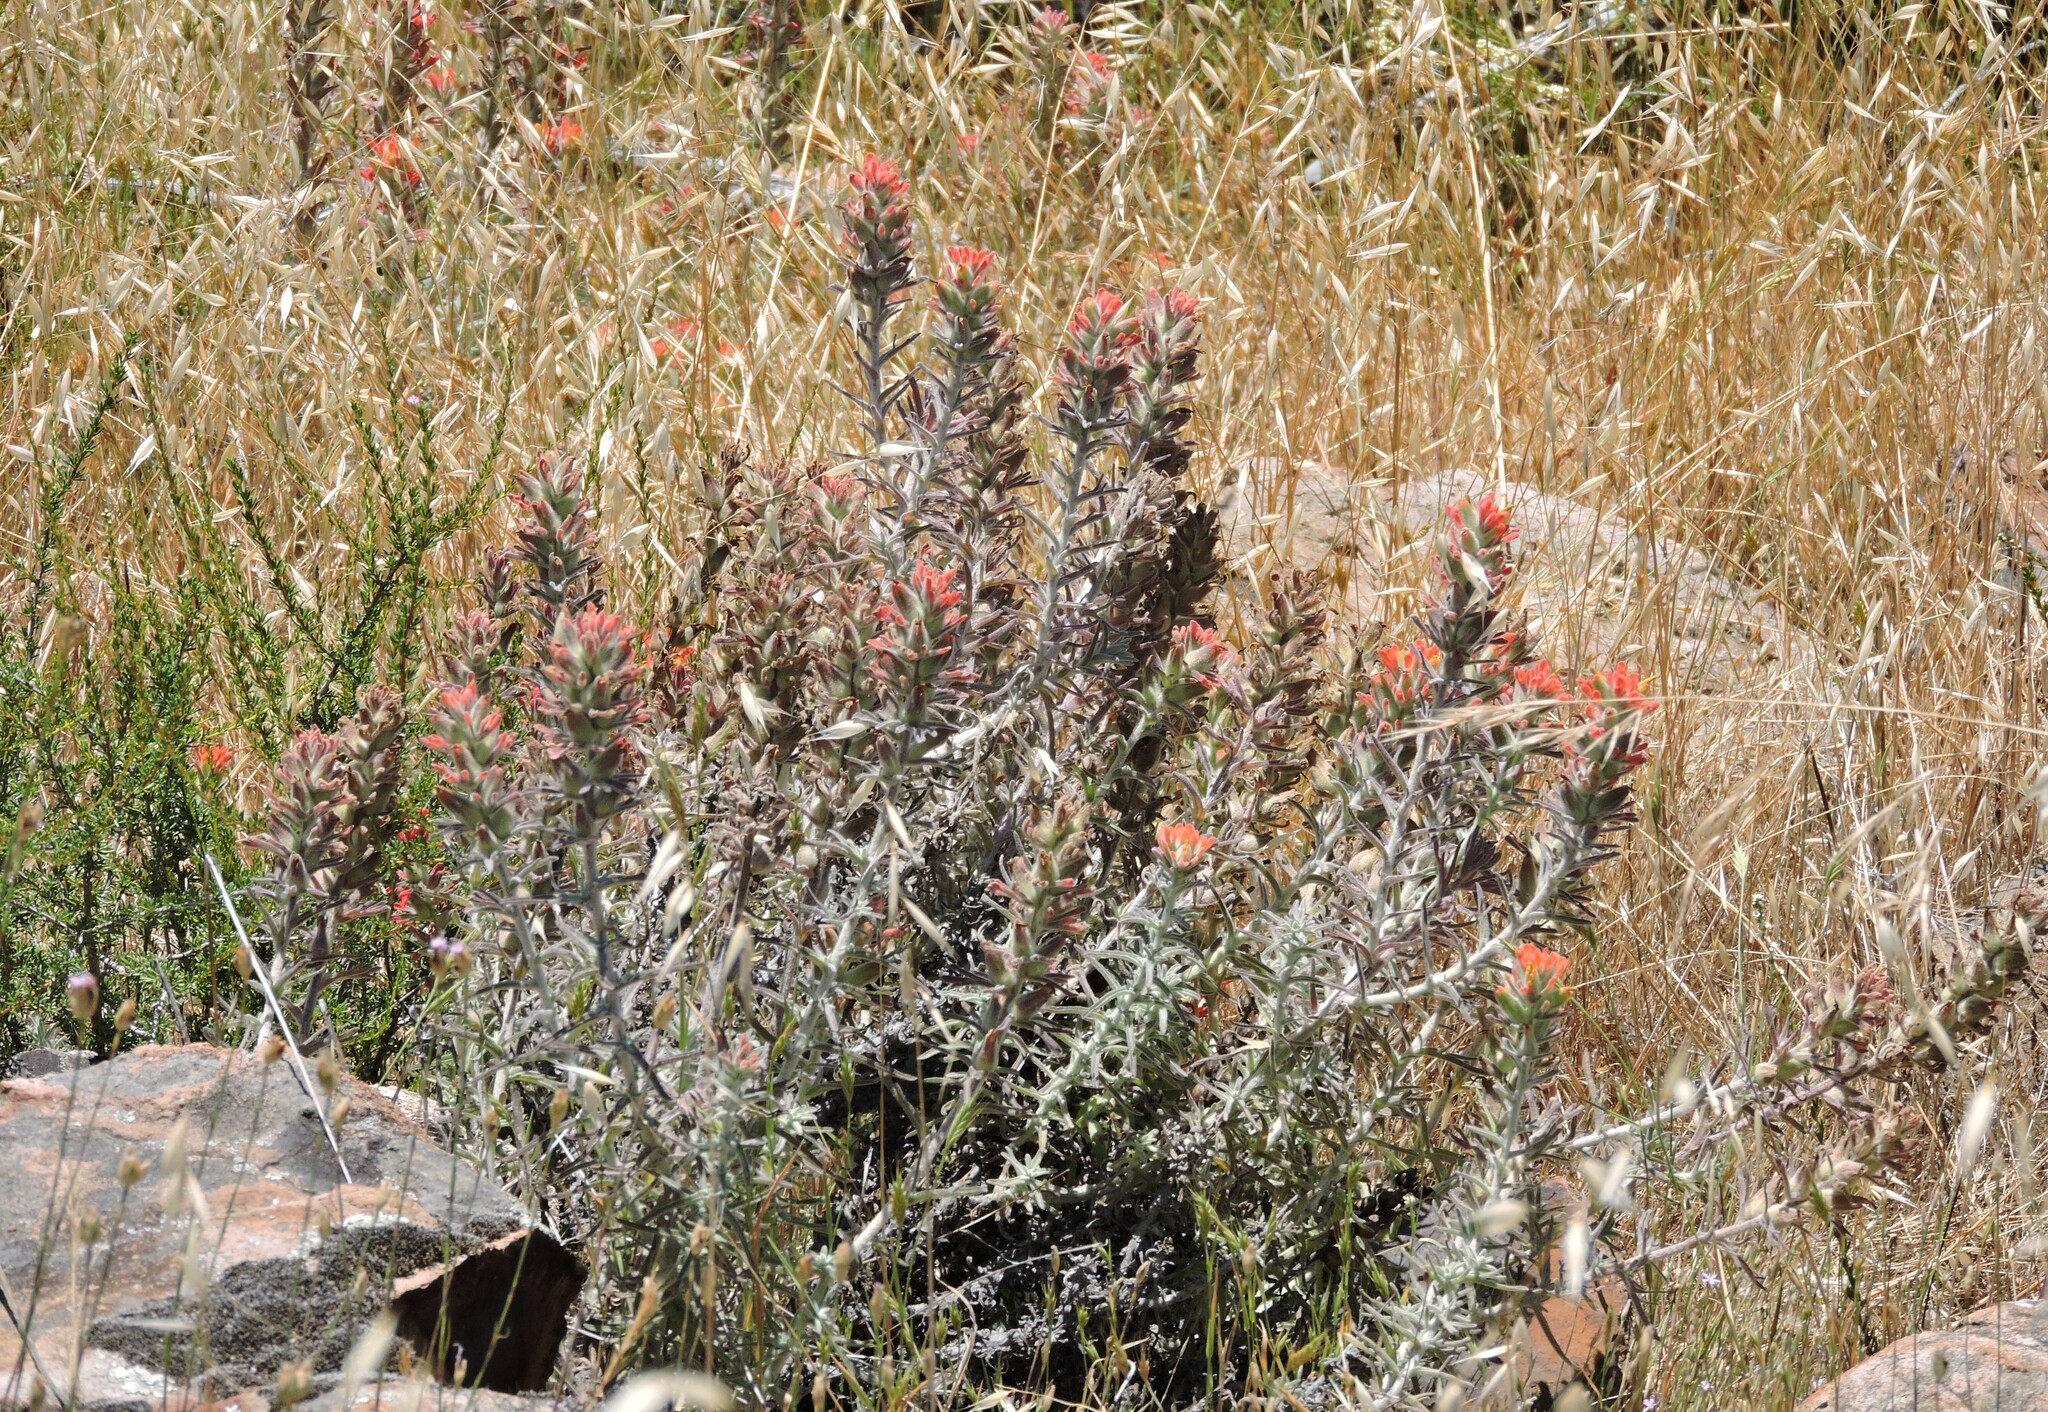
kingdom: Plantae
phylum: Tracheophyta
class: Magnoliopsida
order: Lamiales
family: Orobanchaceae
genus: Castilleja
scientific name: Castilleja foliolosa
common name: Woolly indian paintbrush
